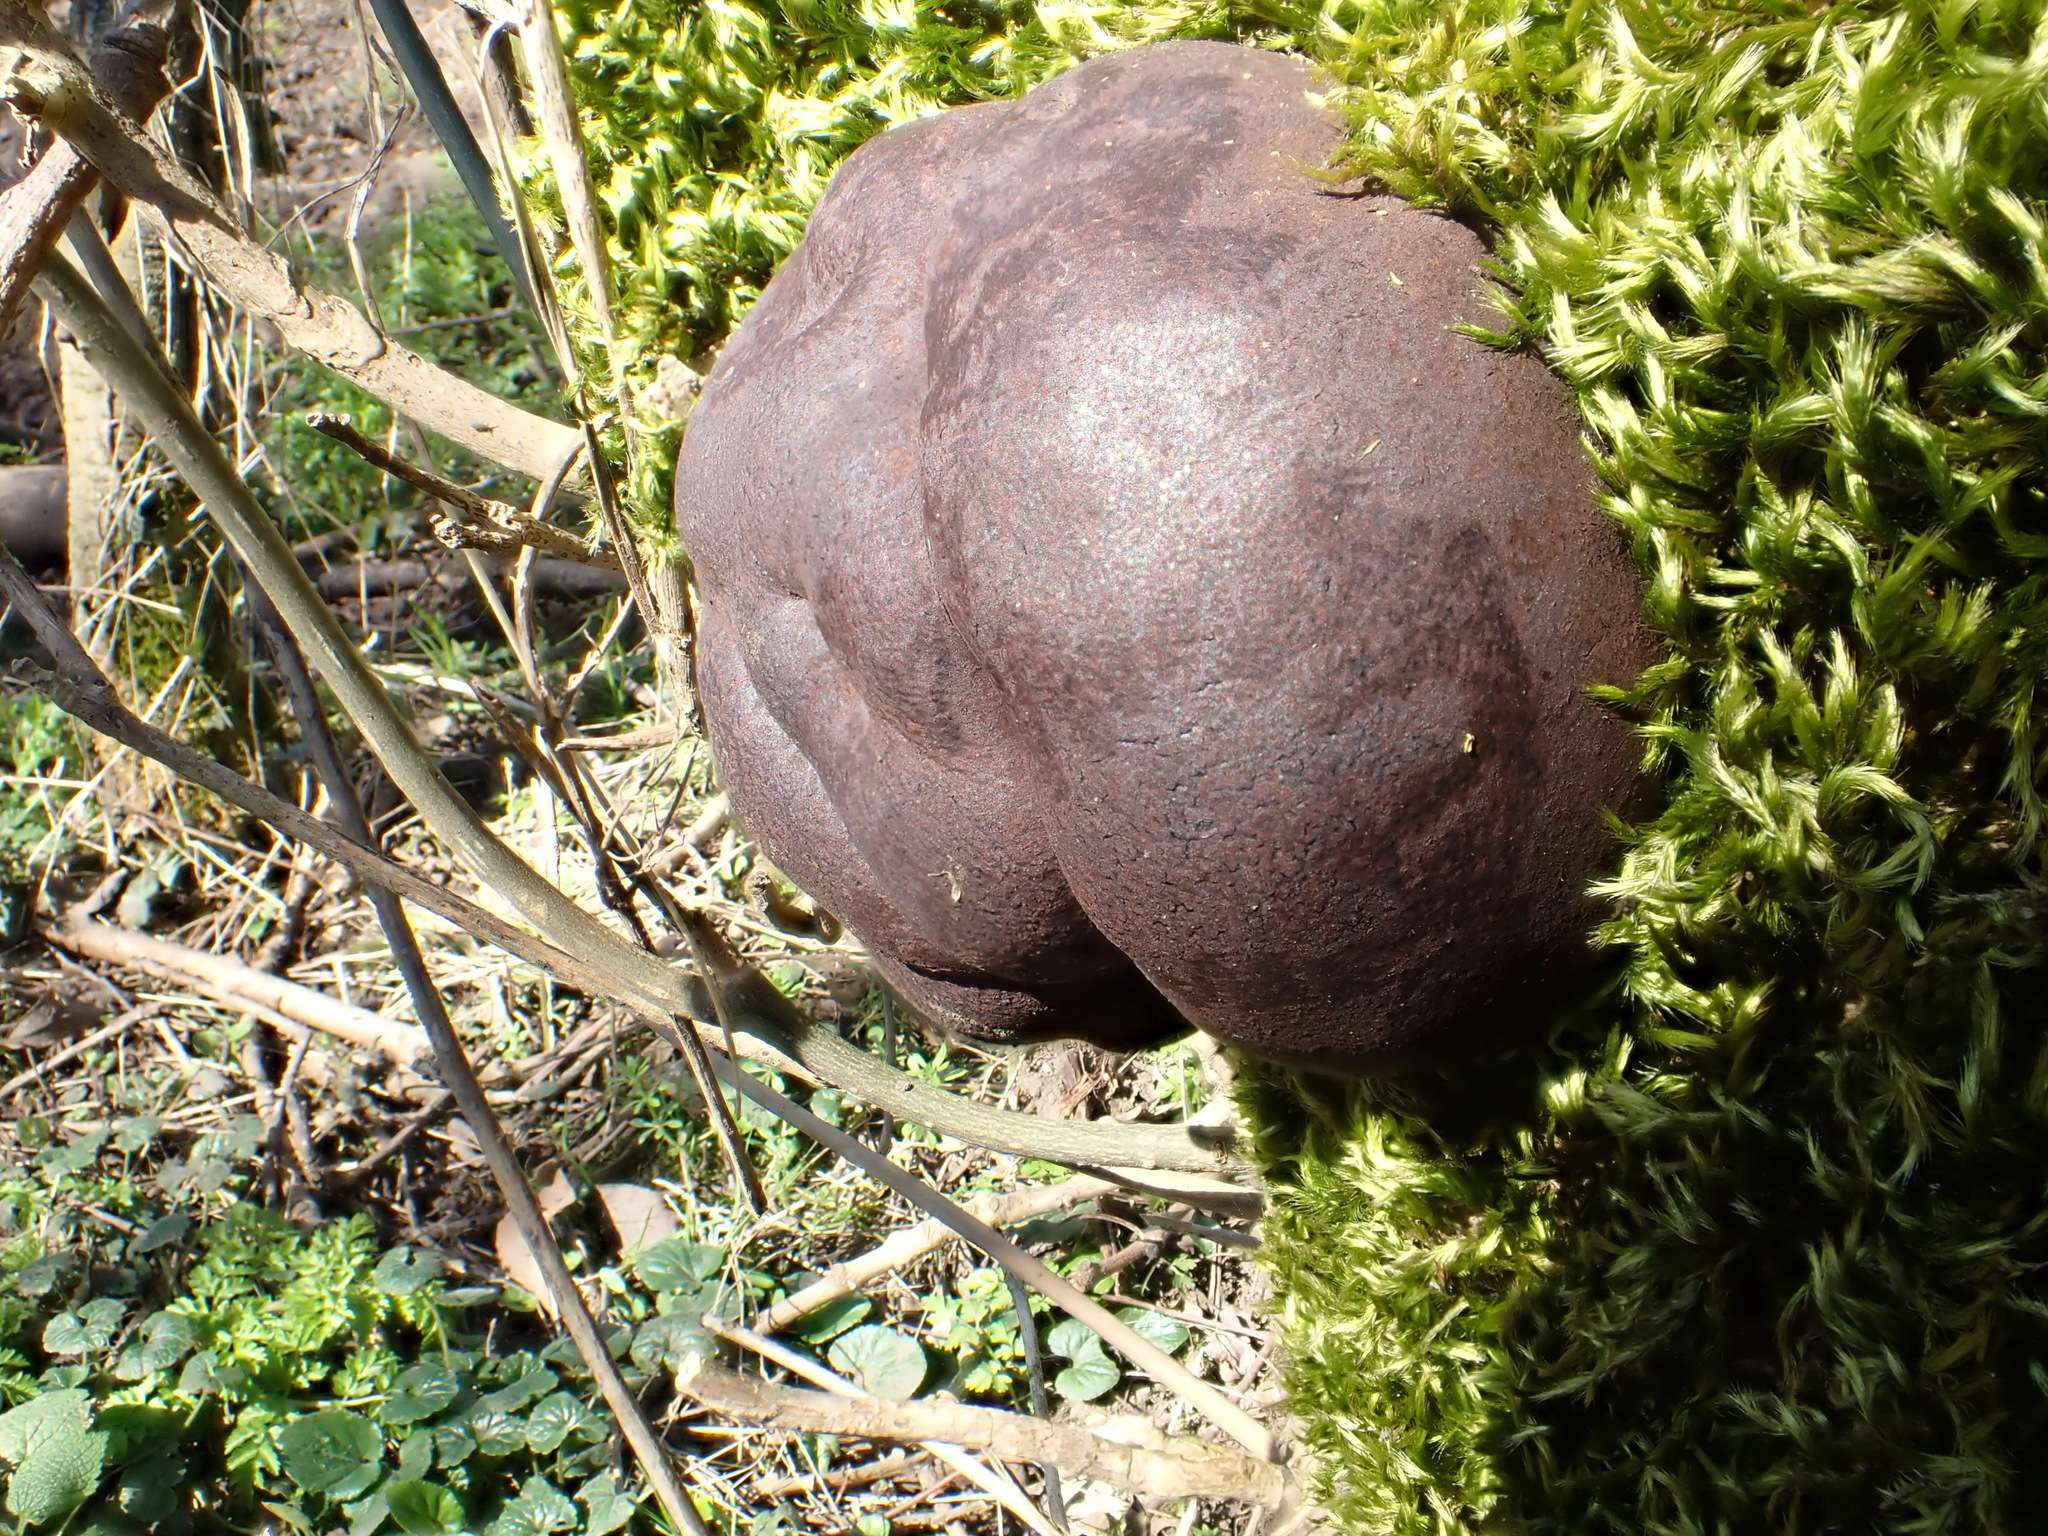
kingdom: Fungi
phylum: Ascomycota
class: Sordariomycetes
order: Xylariales
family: Hypoxylaceae
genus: Daldinia
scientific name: Daldinia concentrica
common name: Cramp balls
